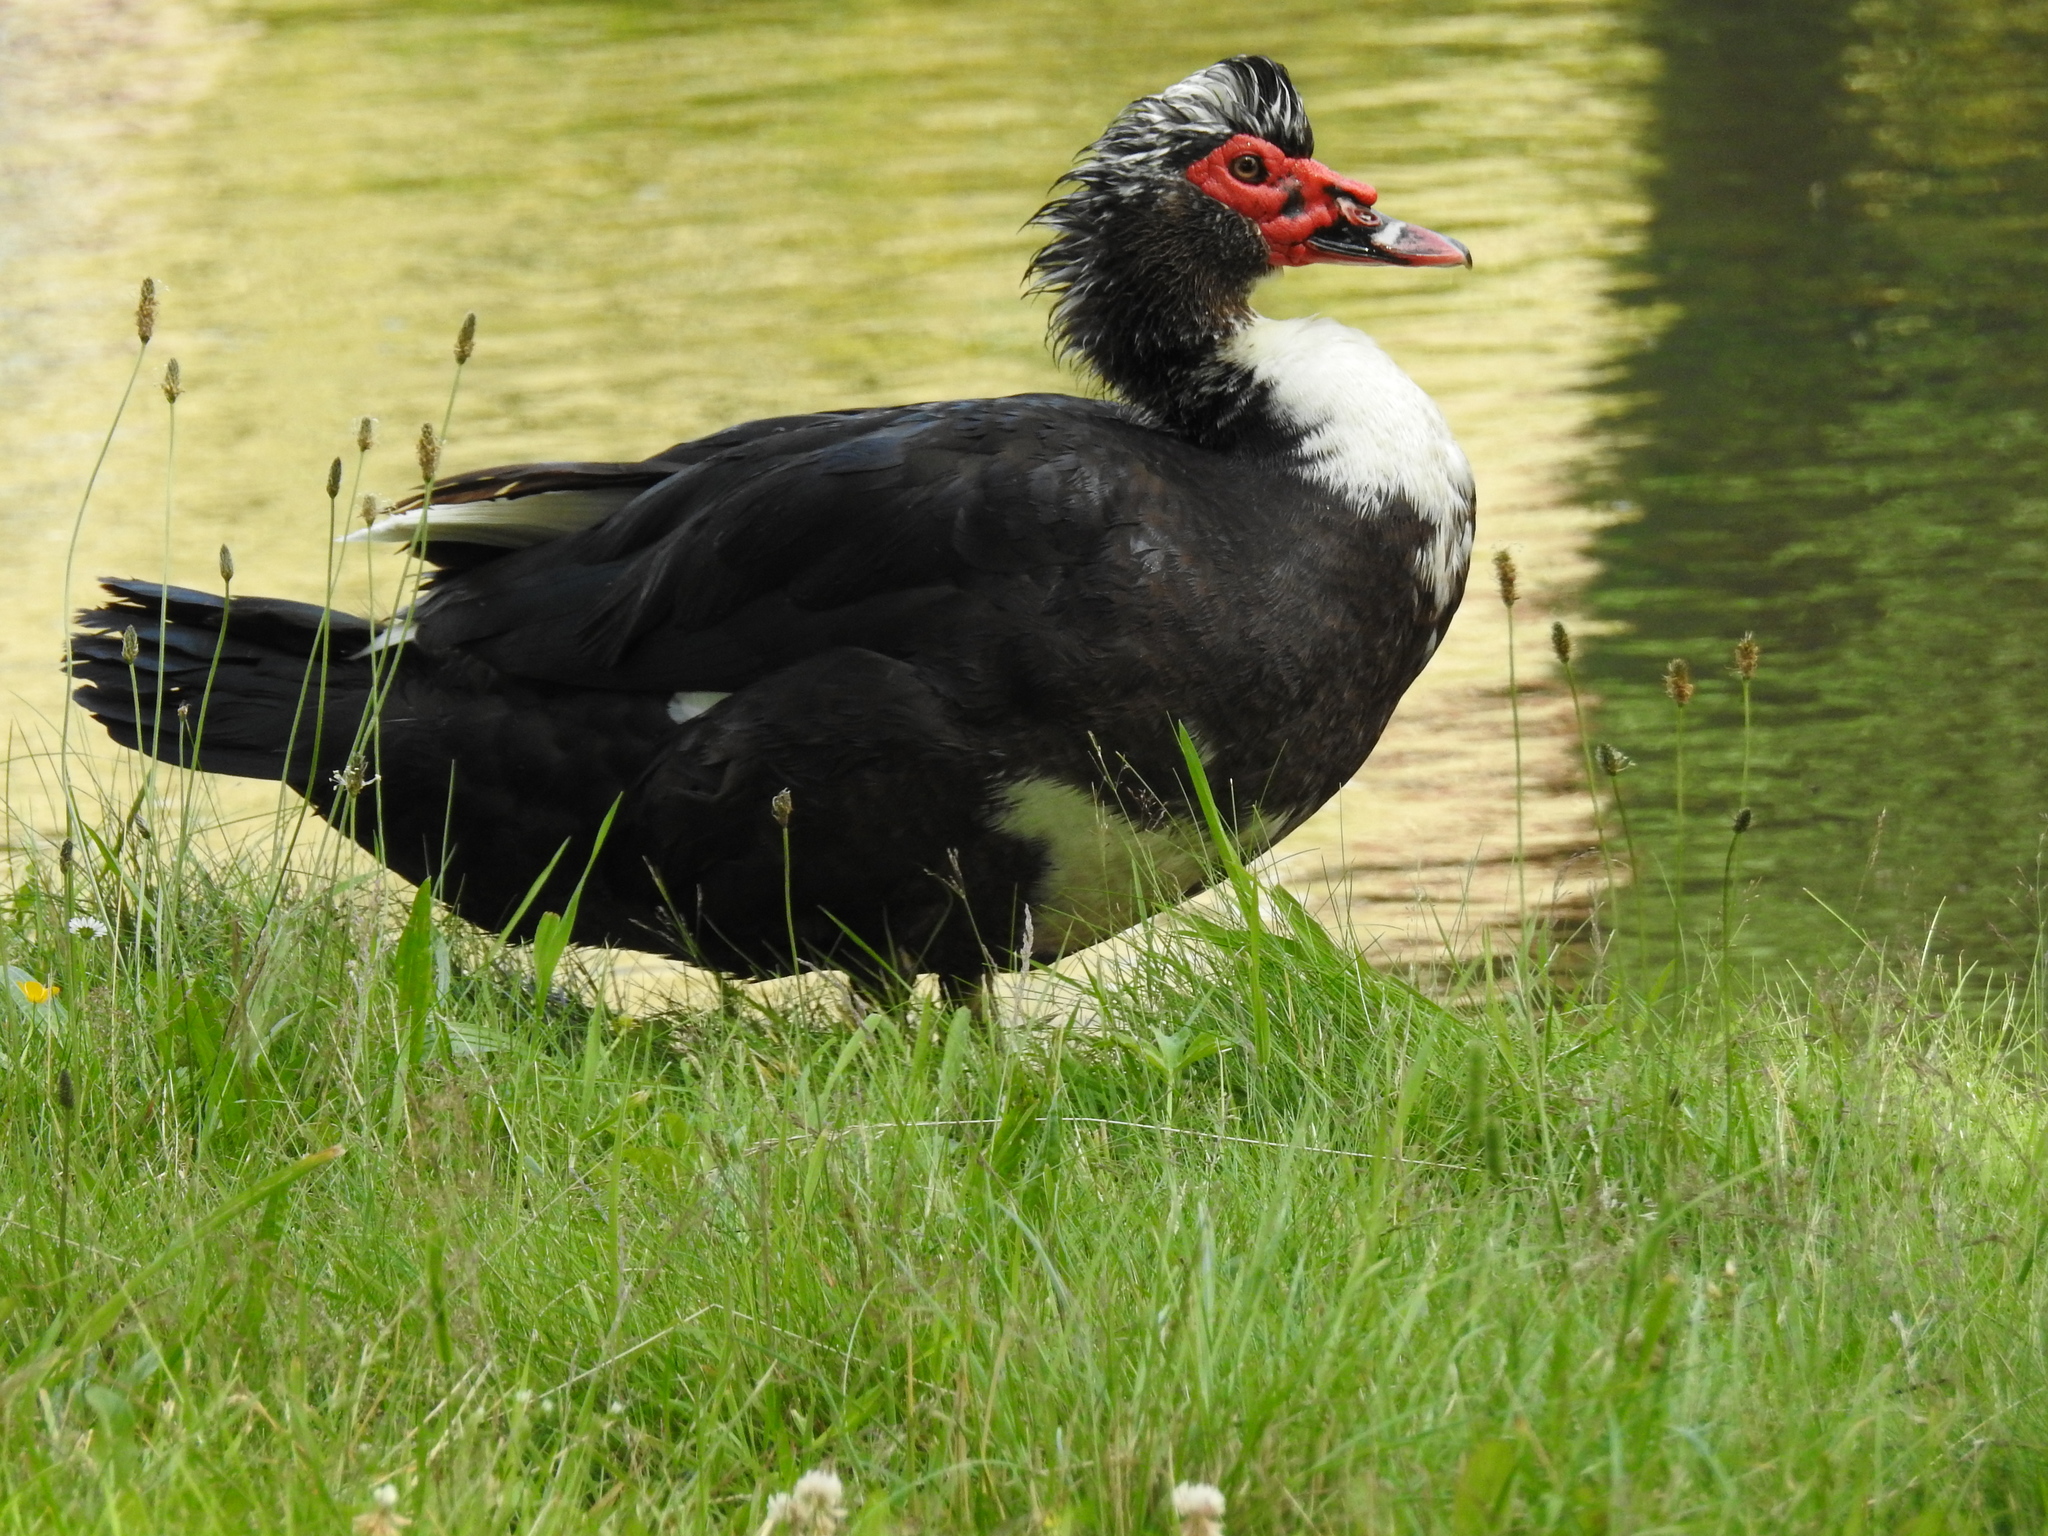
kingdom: Animalia
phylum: Chordata
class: Aves
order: Anseriformes
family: Anatidae
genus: Cairina
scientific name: Cairina moschata
